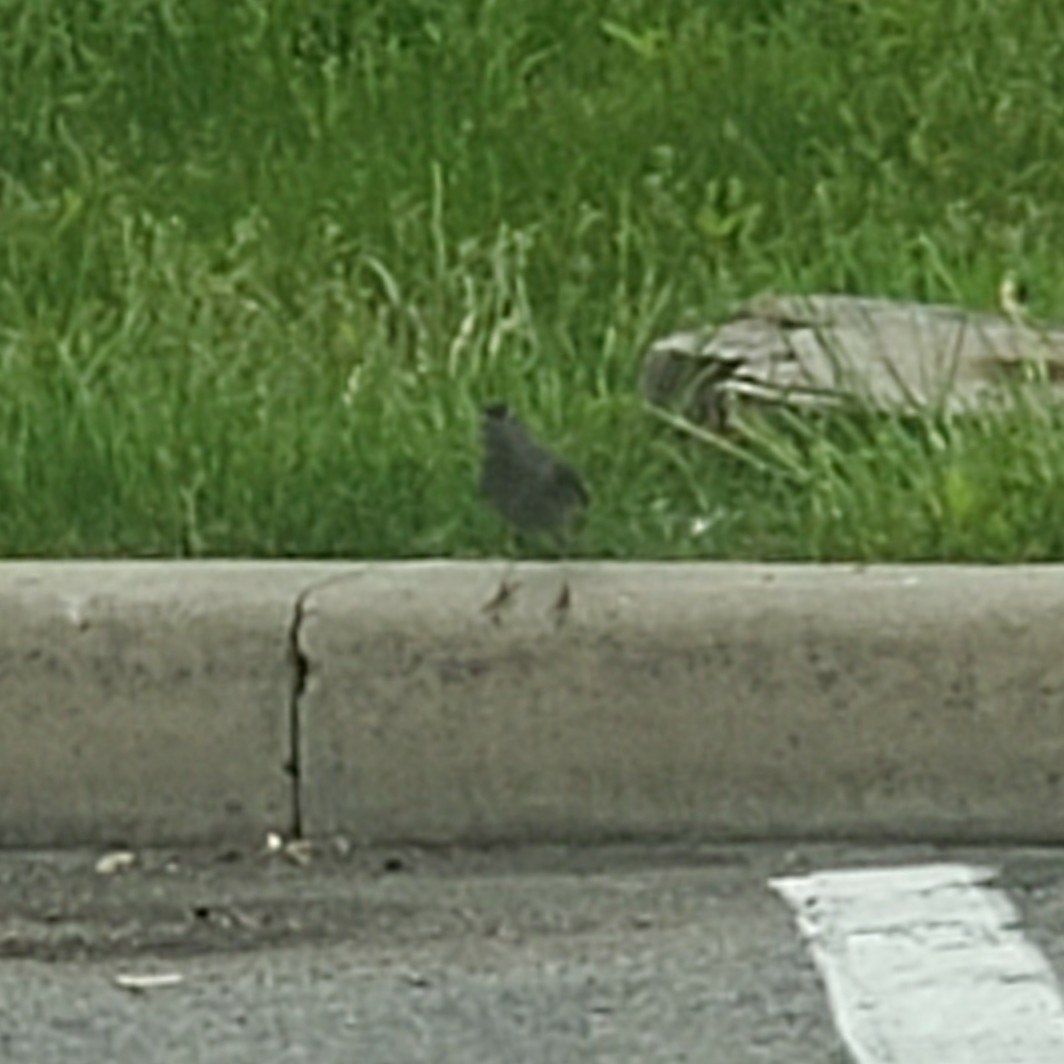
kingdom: Animalia
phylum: Chordata
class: Aves
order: Passeriformes
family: Mimidae
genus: Dumetella
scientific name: Dumetella carolinensis
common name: Gray catbird
